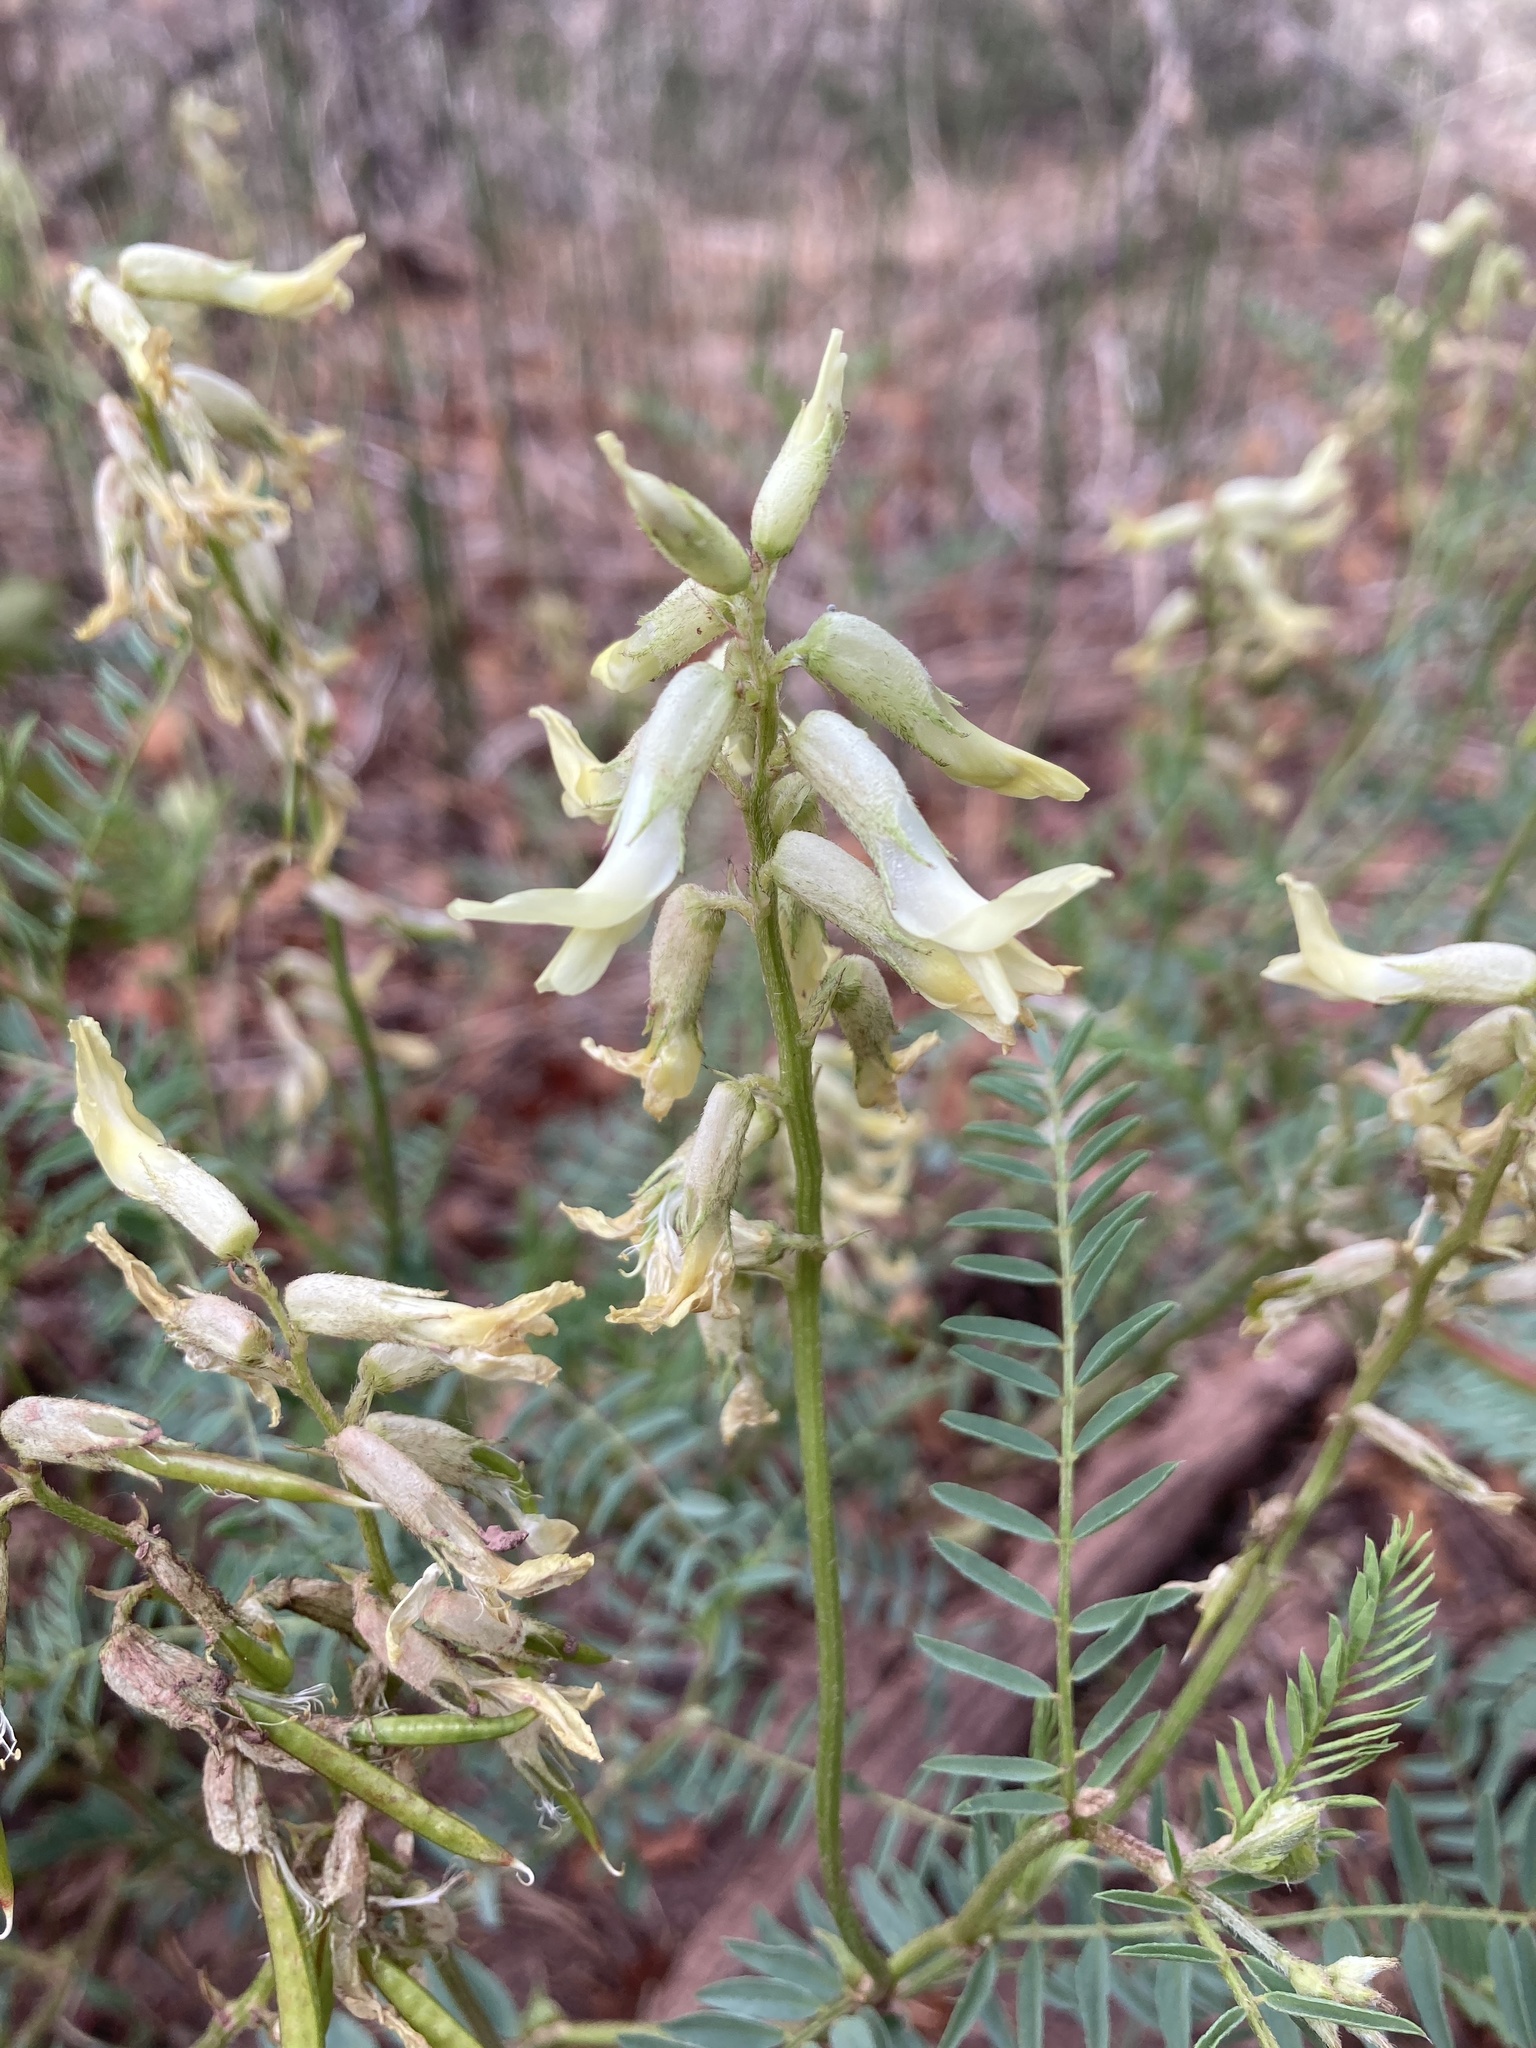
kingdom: Plantae
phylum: Tracheophyta
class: Magnoliopsida
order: Fabales
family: Fabaceae
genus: Astragalus
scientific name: Astragalus scopulorum
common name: Rocky mountain milk-vetch
